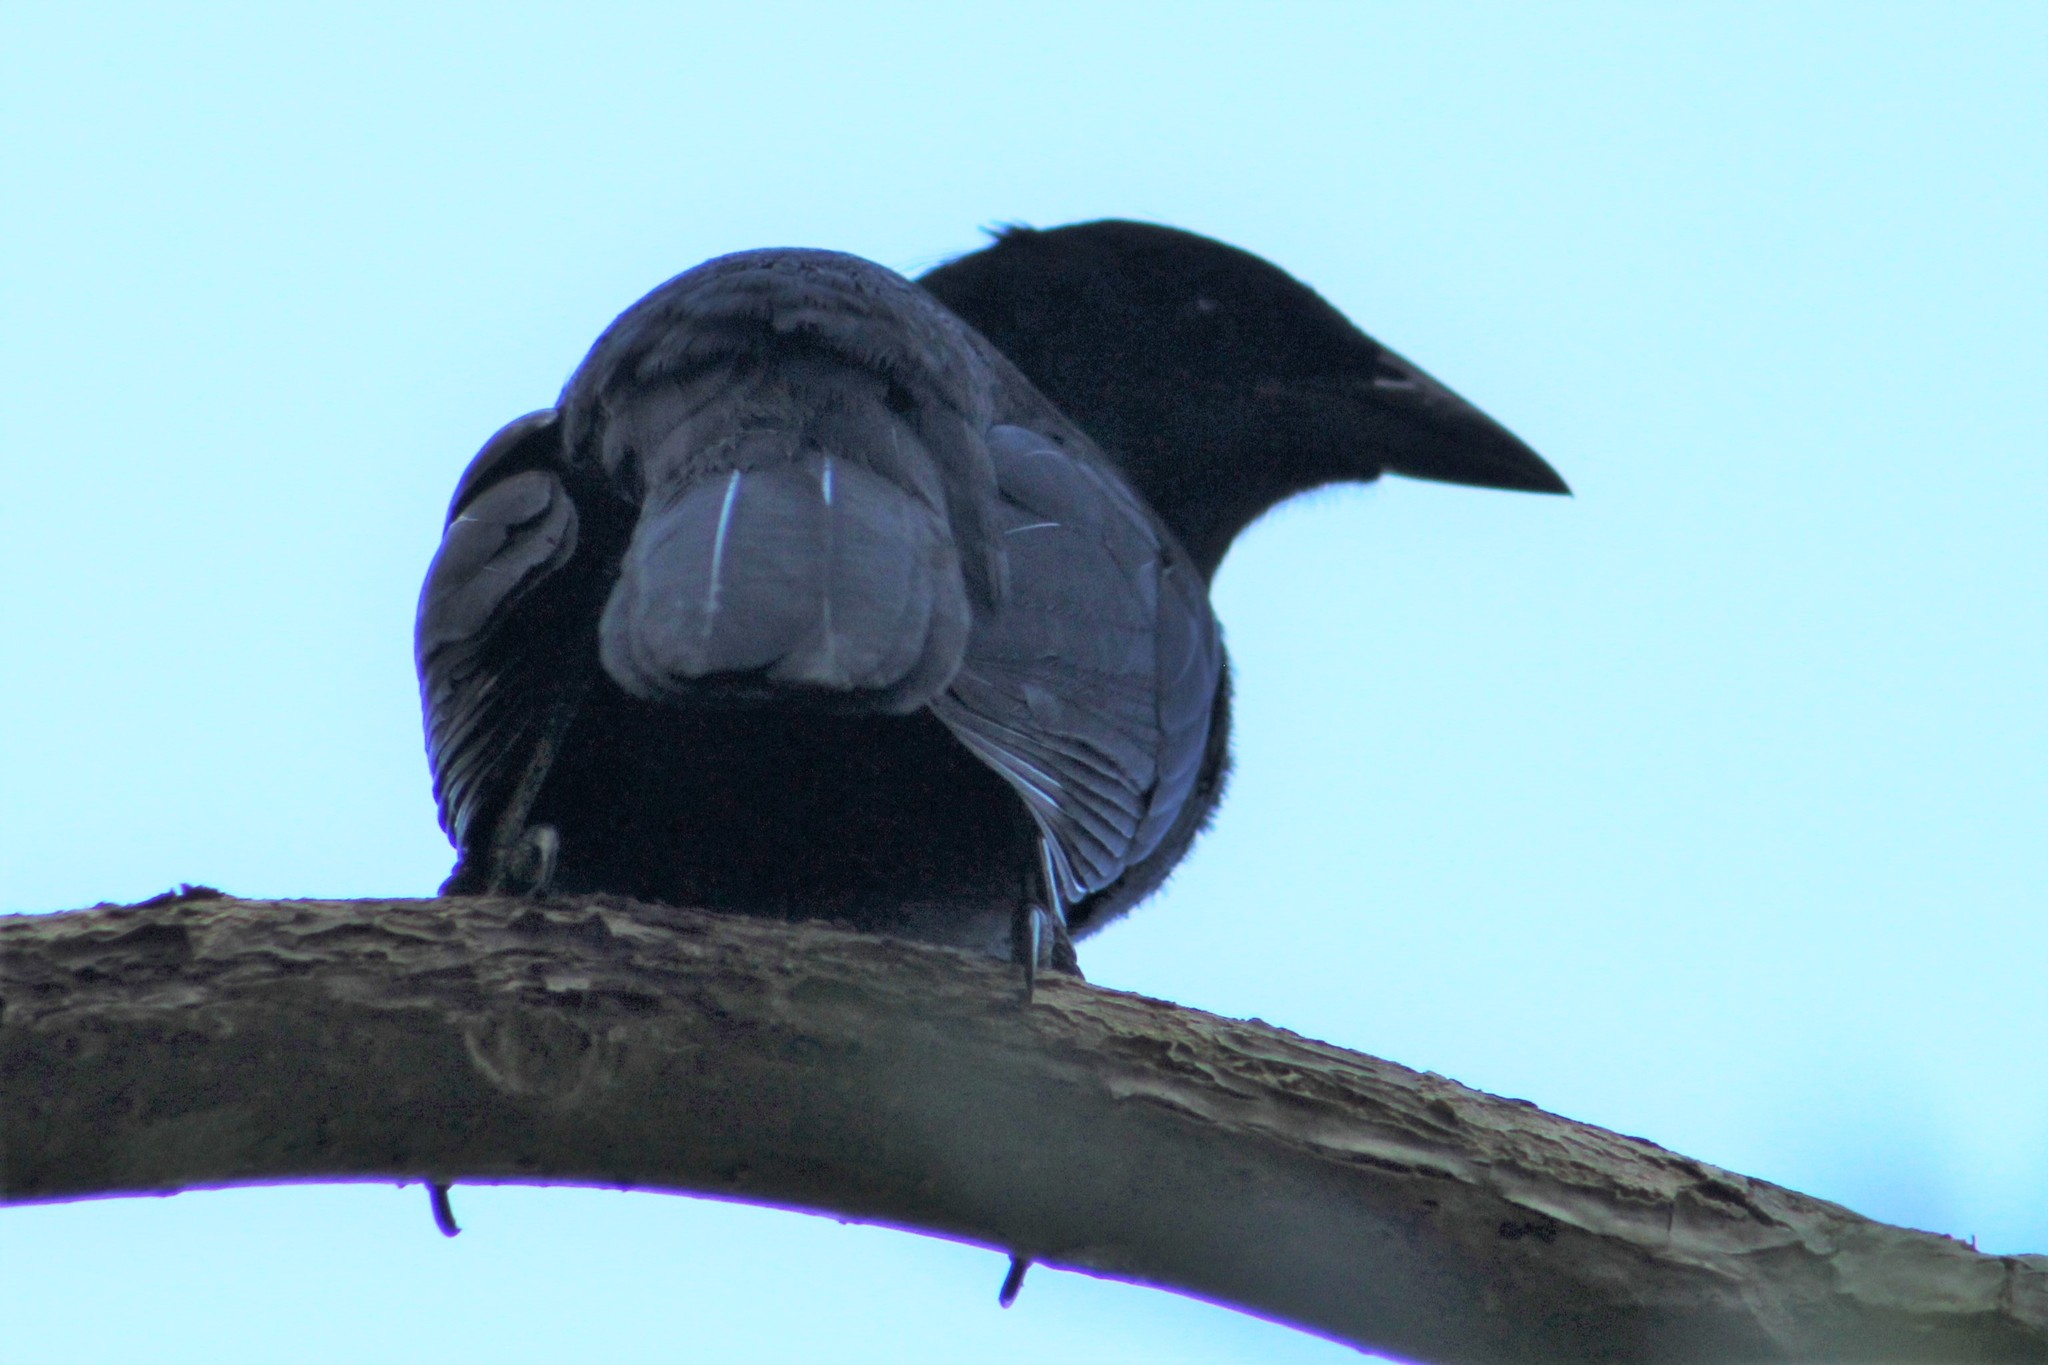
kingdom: Animalia
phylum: Chordata
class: Aves
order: Passeriformes
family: Icteridae
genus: Dives
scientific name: Dives dives
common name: Melodious blackbird
